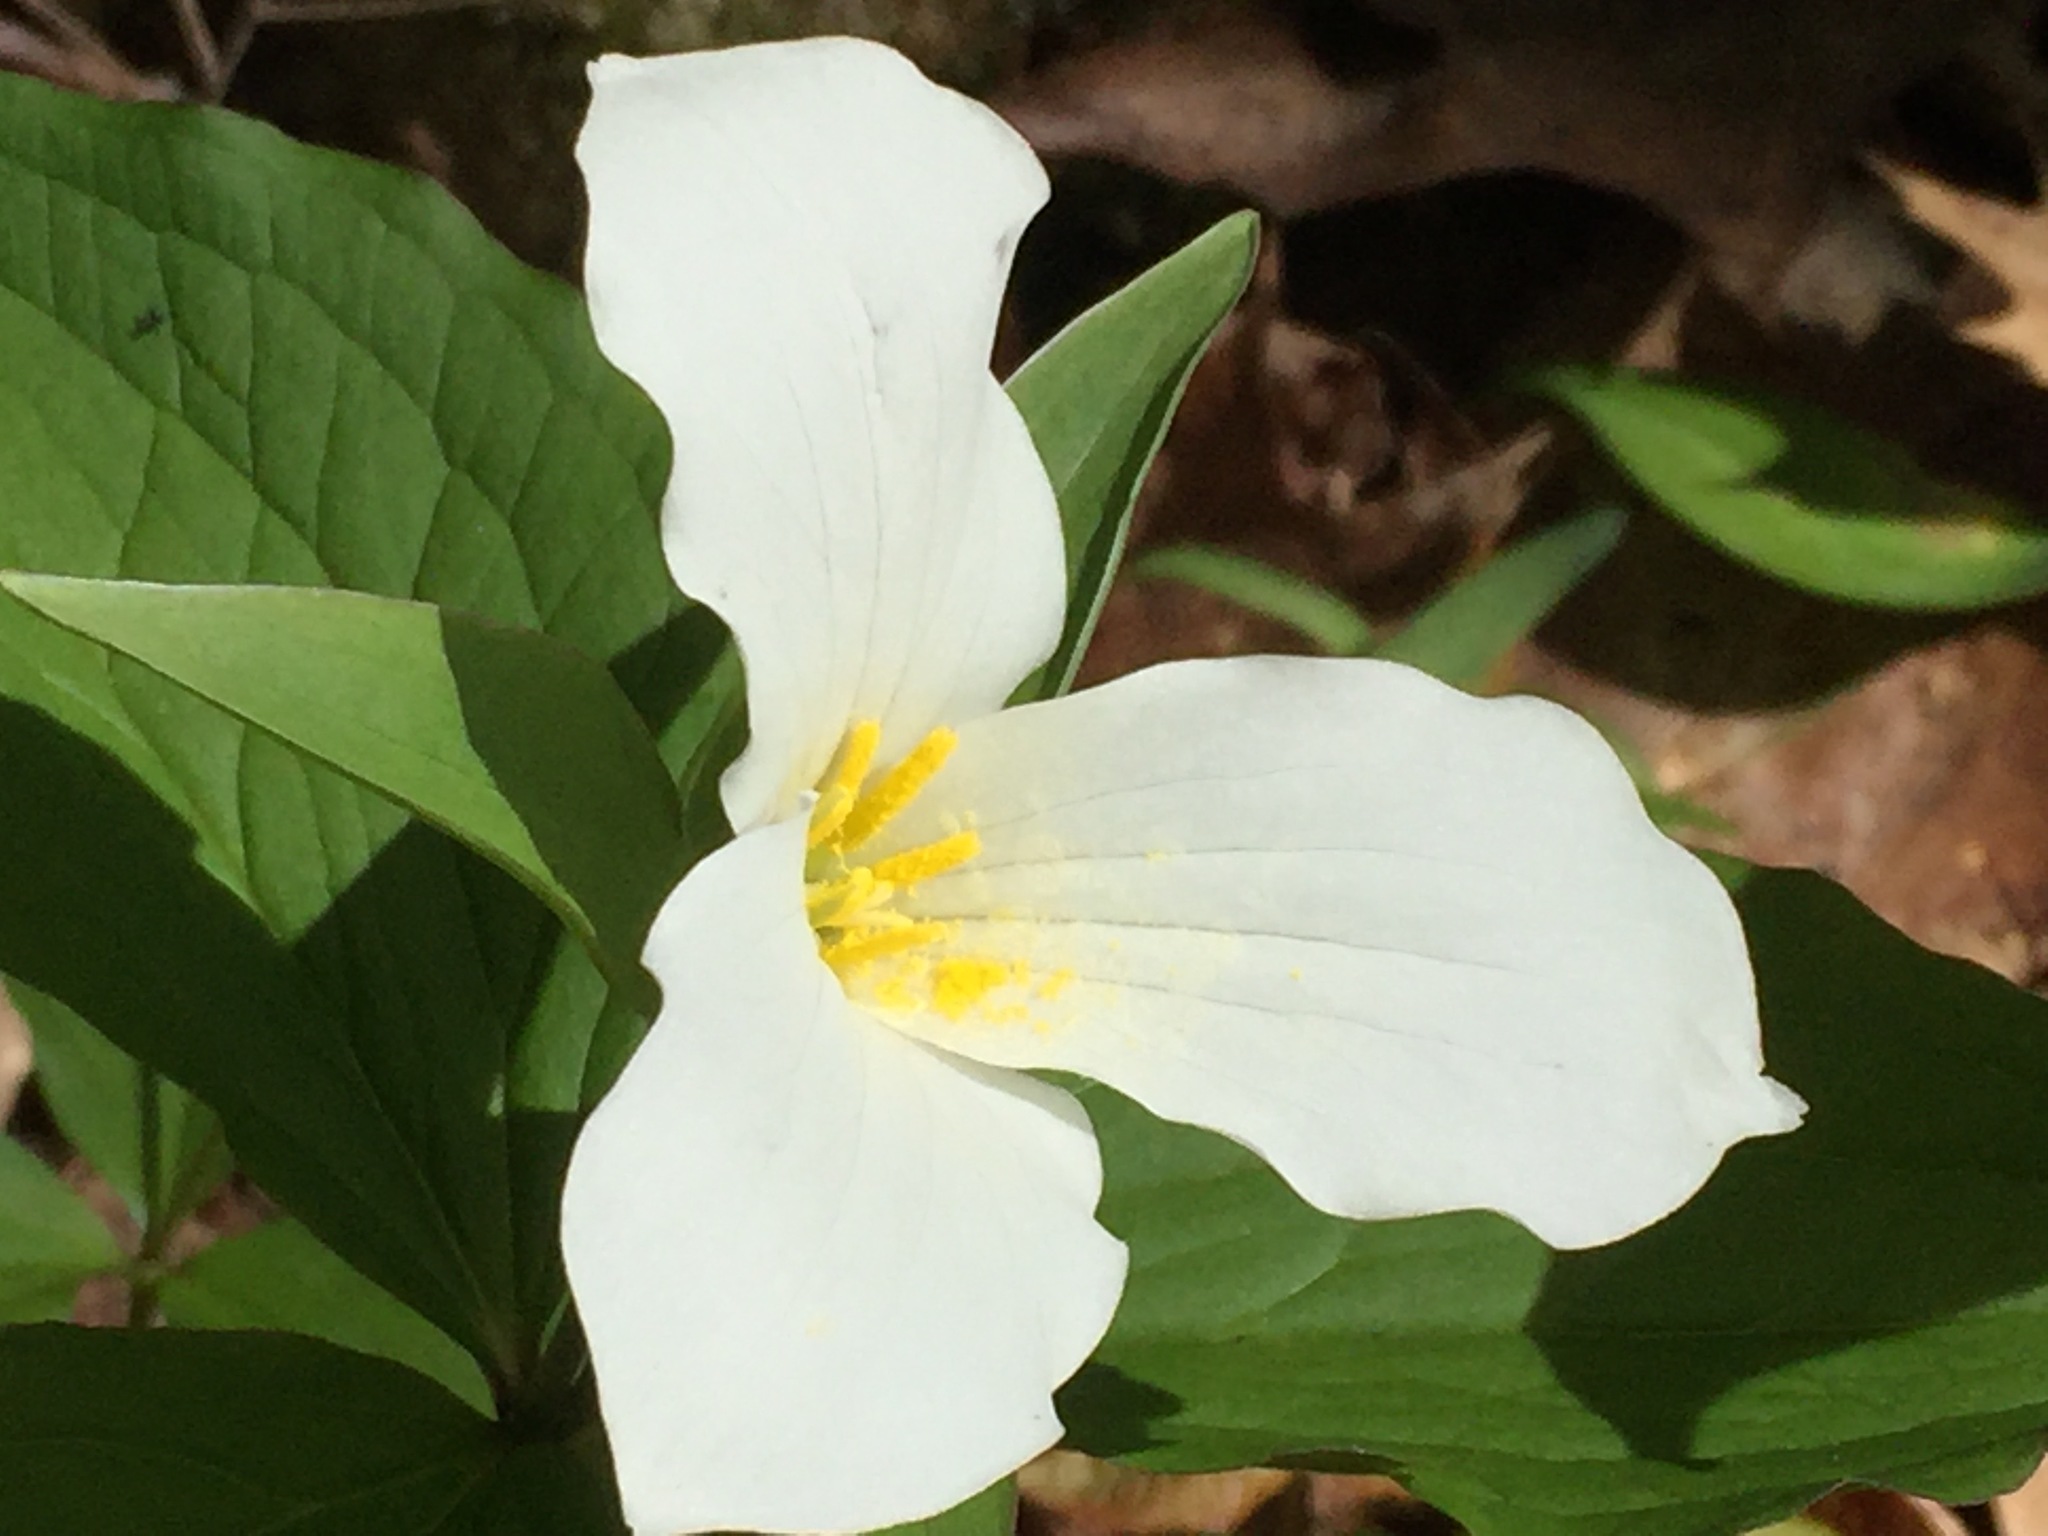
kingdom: Plantae
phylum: Tracheophyta
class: Liliopsida
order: Liliales
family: Melanthiaceae
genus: Trillium
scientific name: Trillium grandiflorum
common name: Great white trillium
